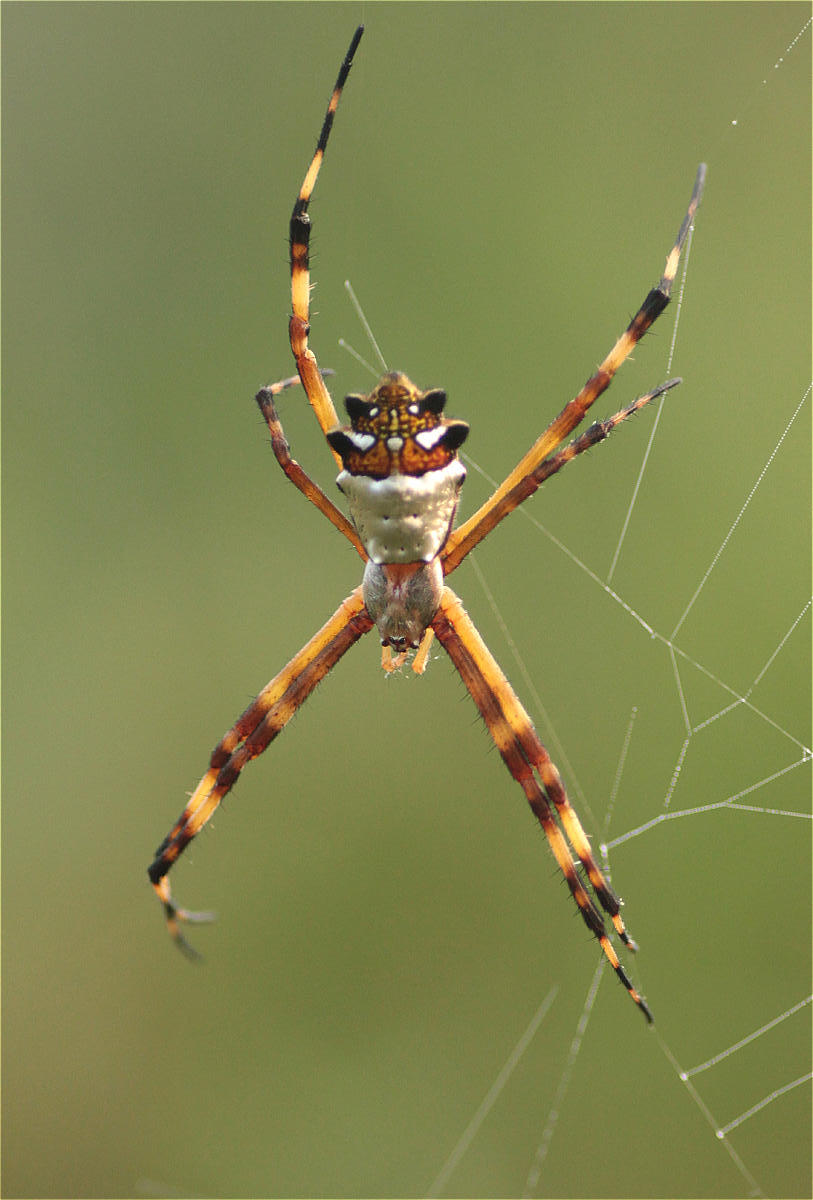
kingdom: Animalia
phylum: Arthropoda
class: Arachnida
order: Araneae
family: Araneidae
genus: Argiope
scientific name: Argiope argentata
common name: Orb weavers
